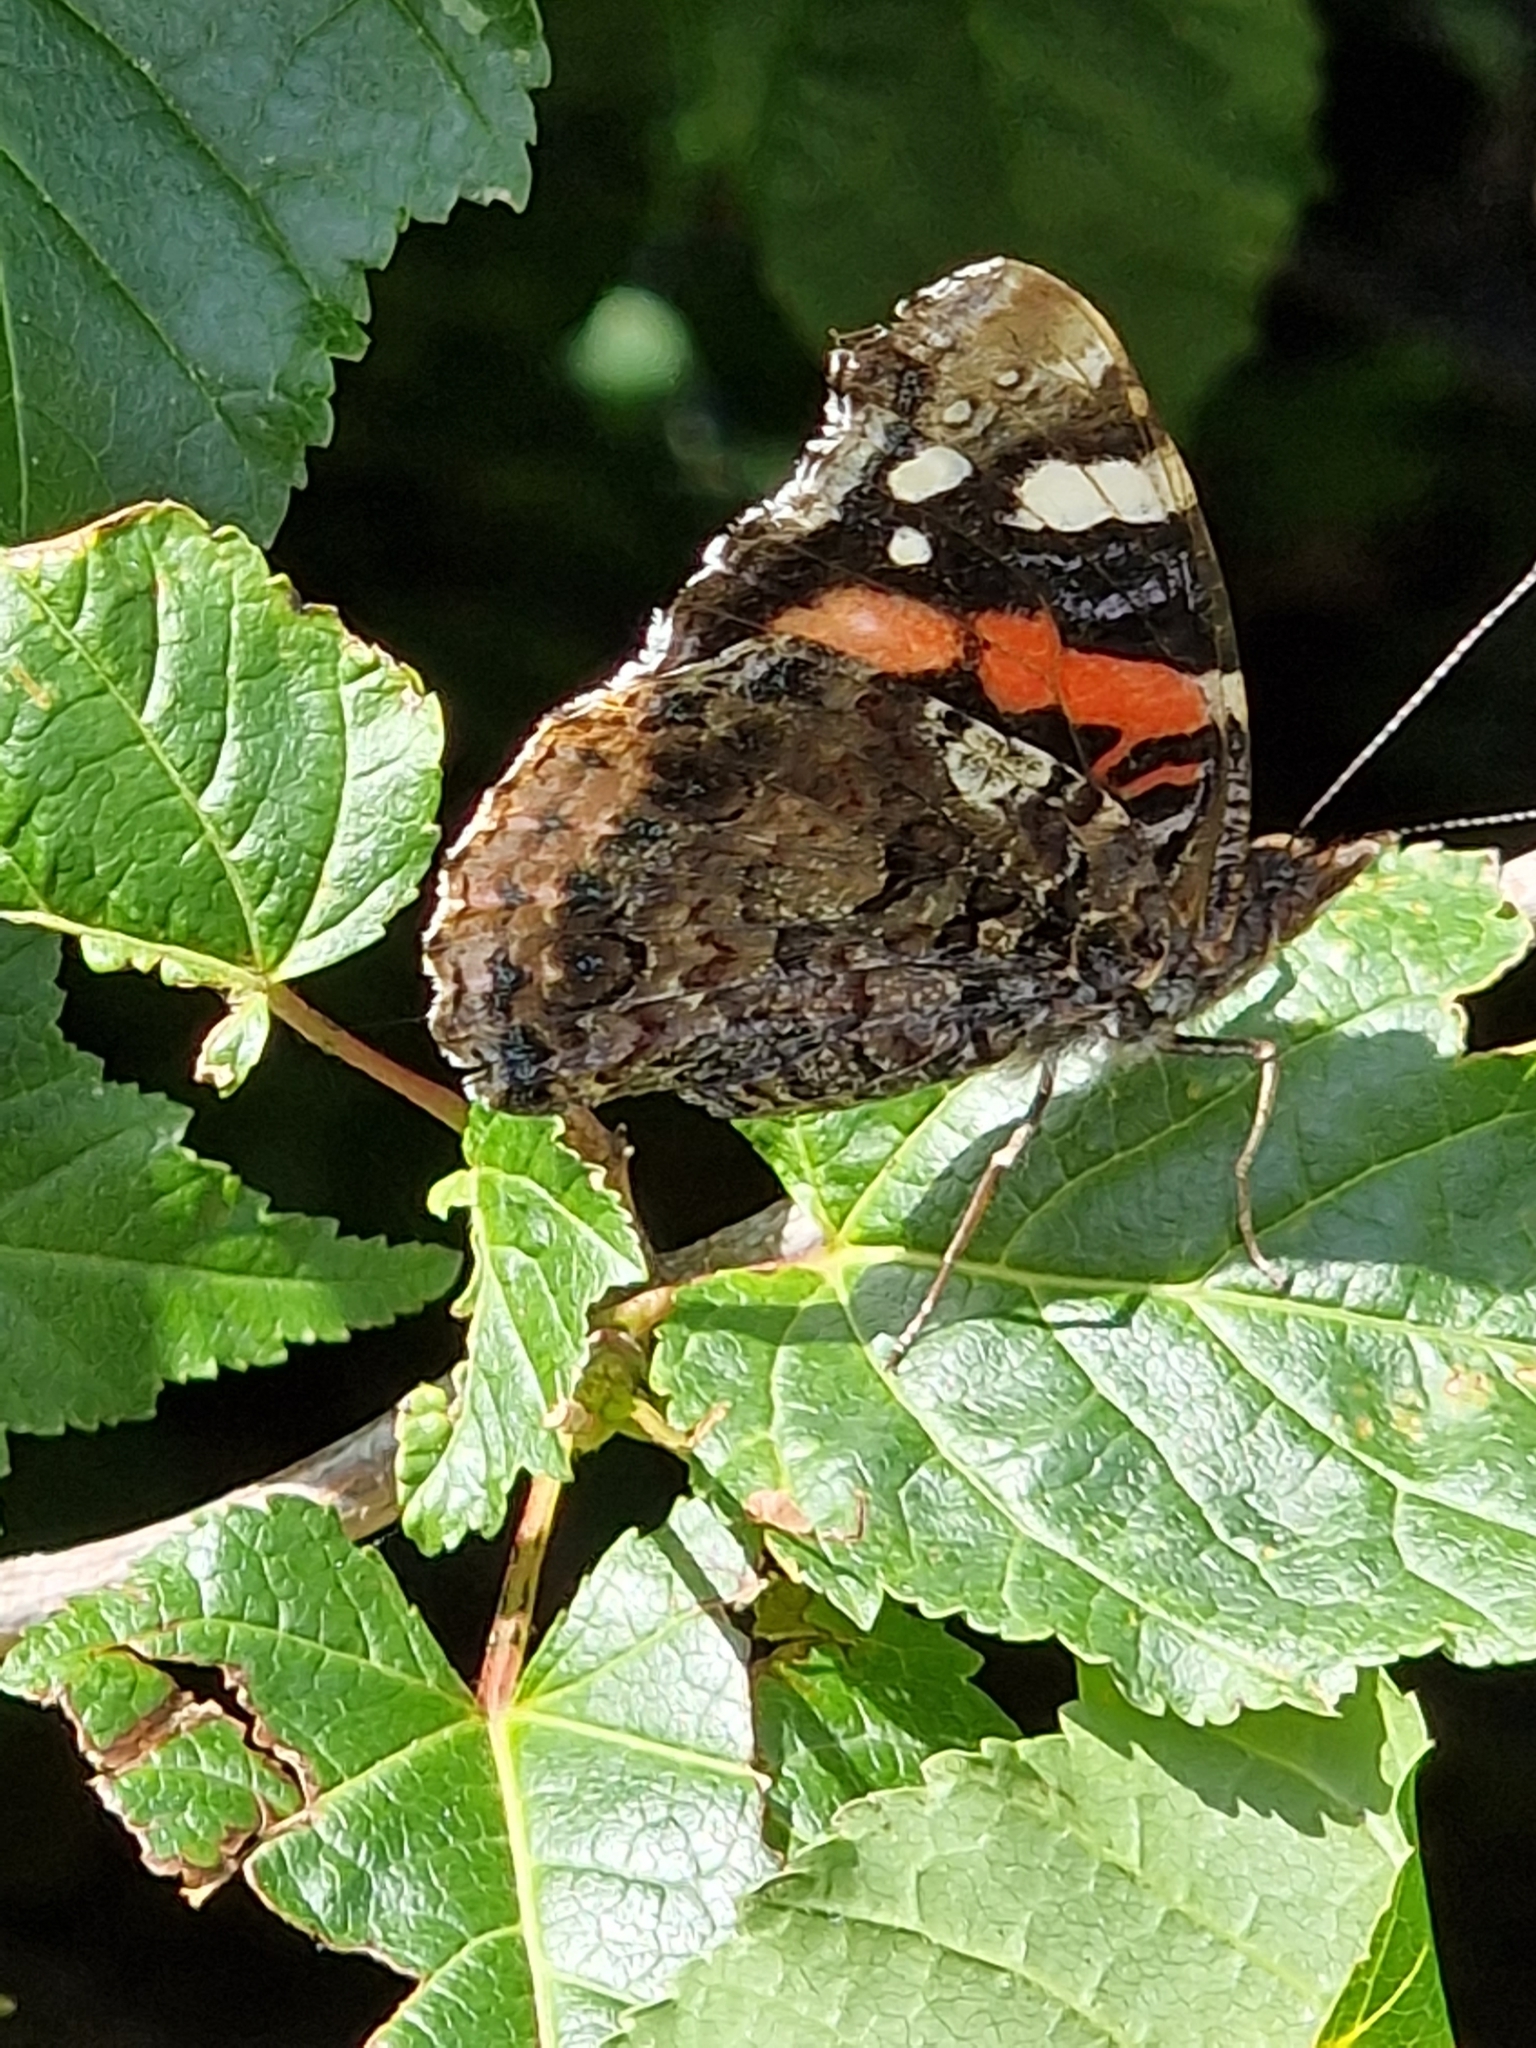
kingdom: Animalia
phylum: Arthropoda
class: Insecta
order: Lepidoptera
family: Nymphalidae
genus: Vanessa
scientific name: Vanessa atalanta
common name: Red admiral
